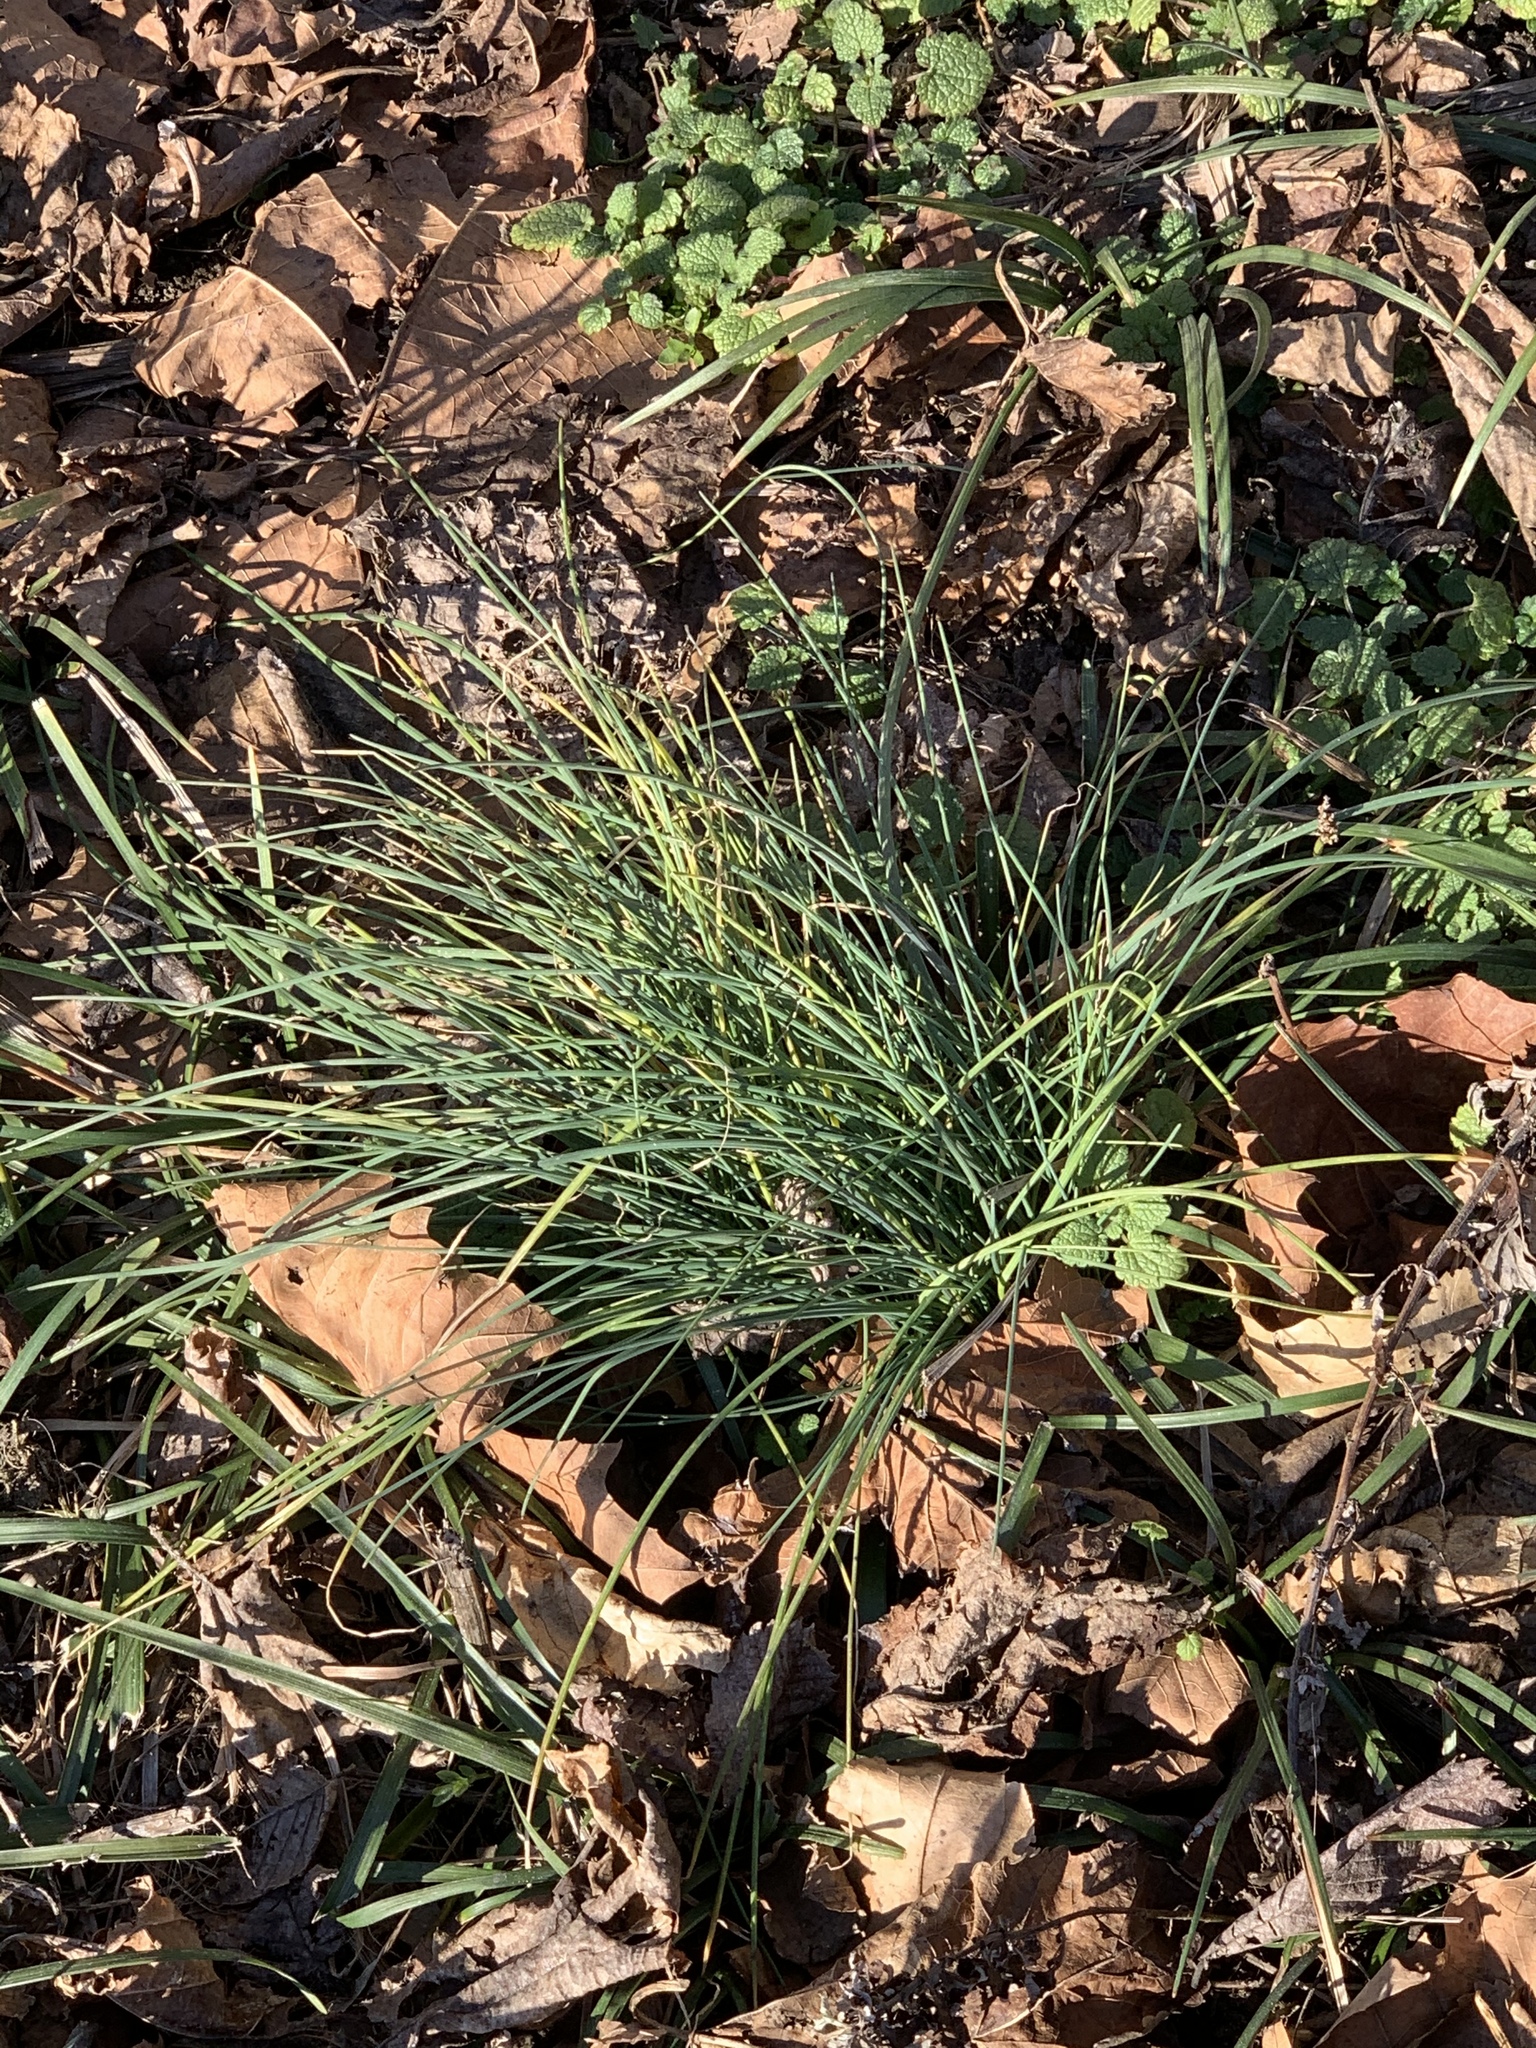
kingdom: Plantae
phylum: Tracheophyta
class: Liliopsida
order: Asparagales
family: Amaryllidaceae
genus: Allium
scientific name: Allium vineale
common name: Crow garlic
